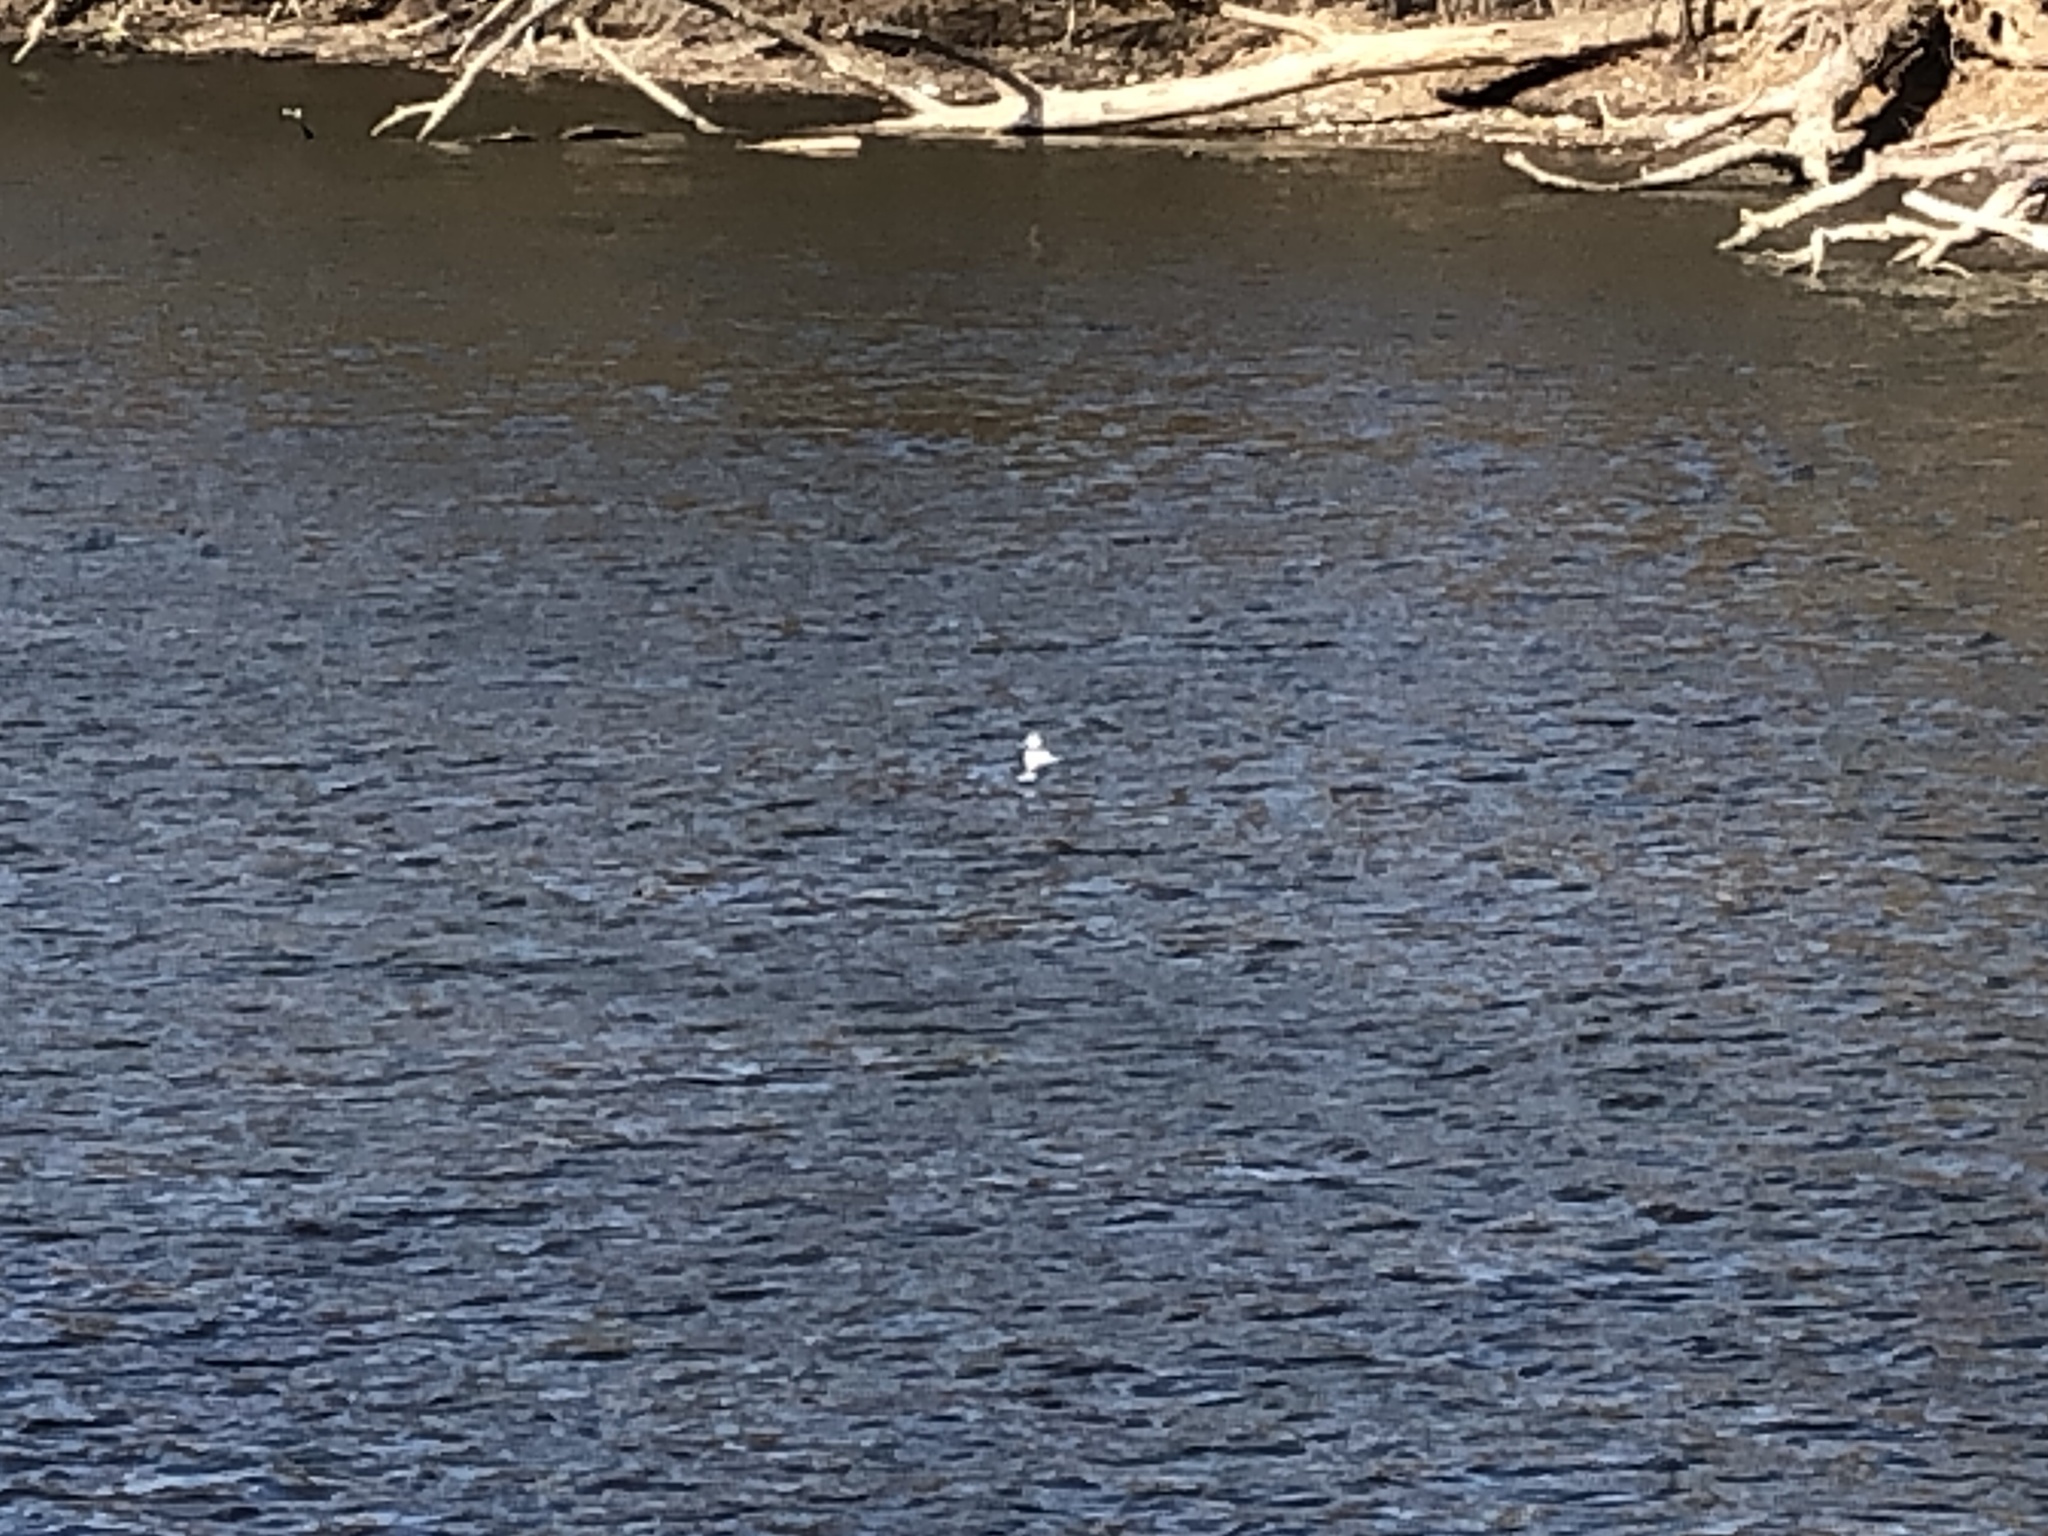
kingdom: Animalia
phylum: Chordata
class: Aves
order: Anseriformes
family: Anatidae
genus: Bucephala
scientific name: Bucephala albeola
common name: Bufflehead
